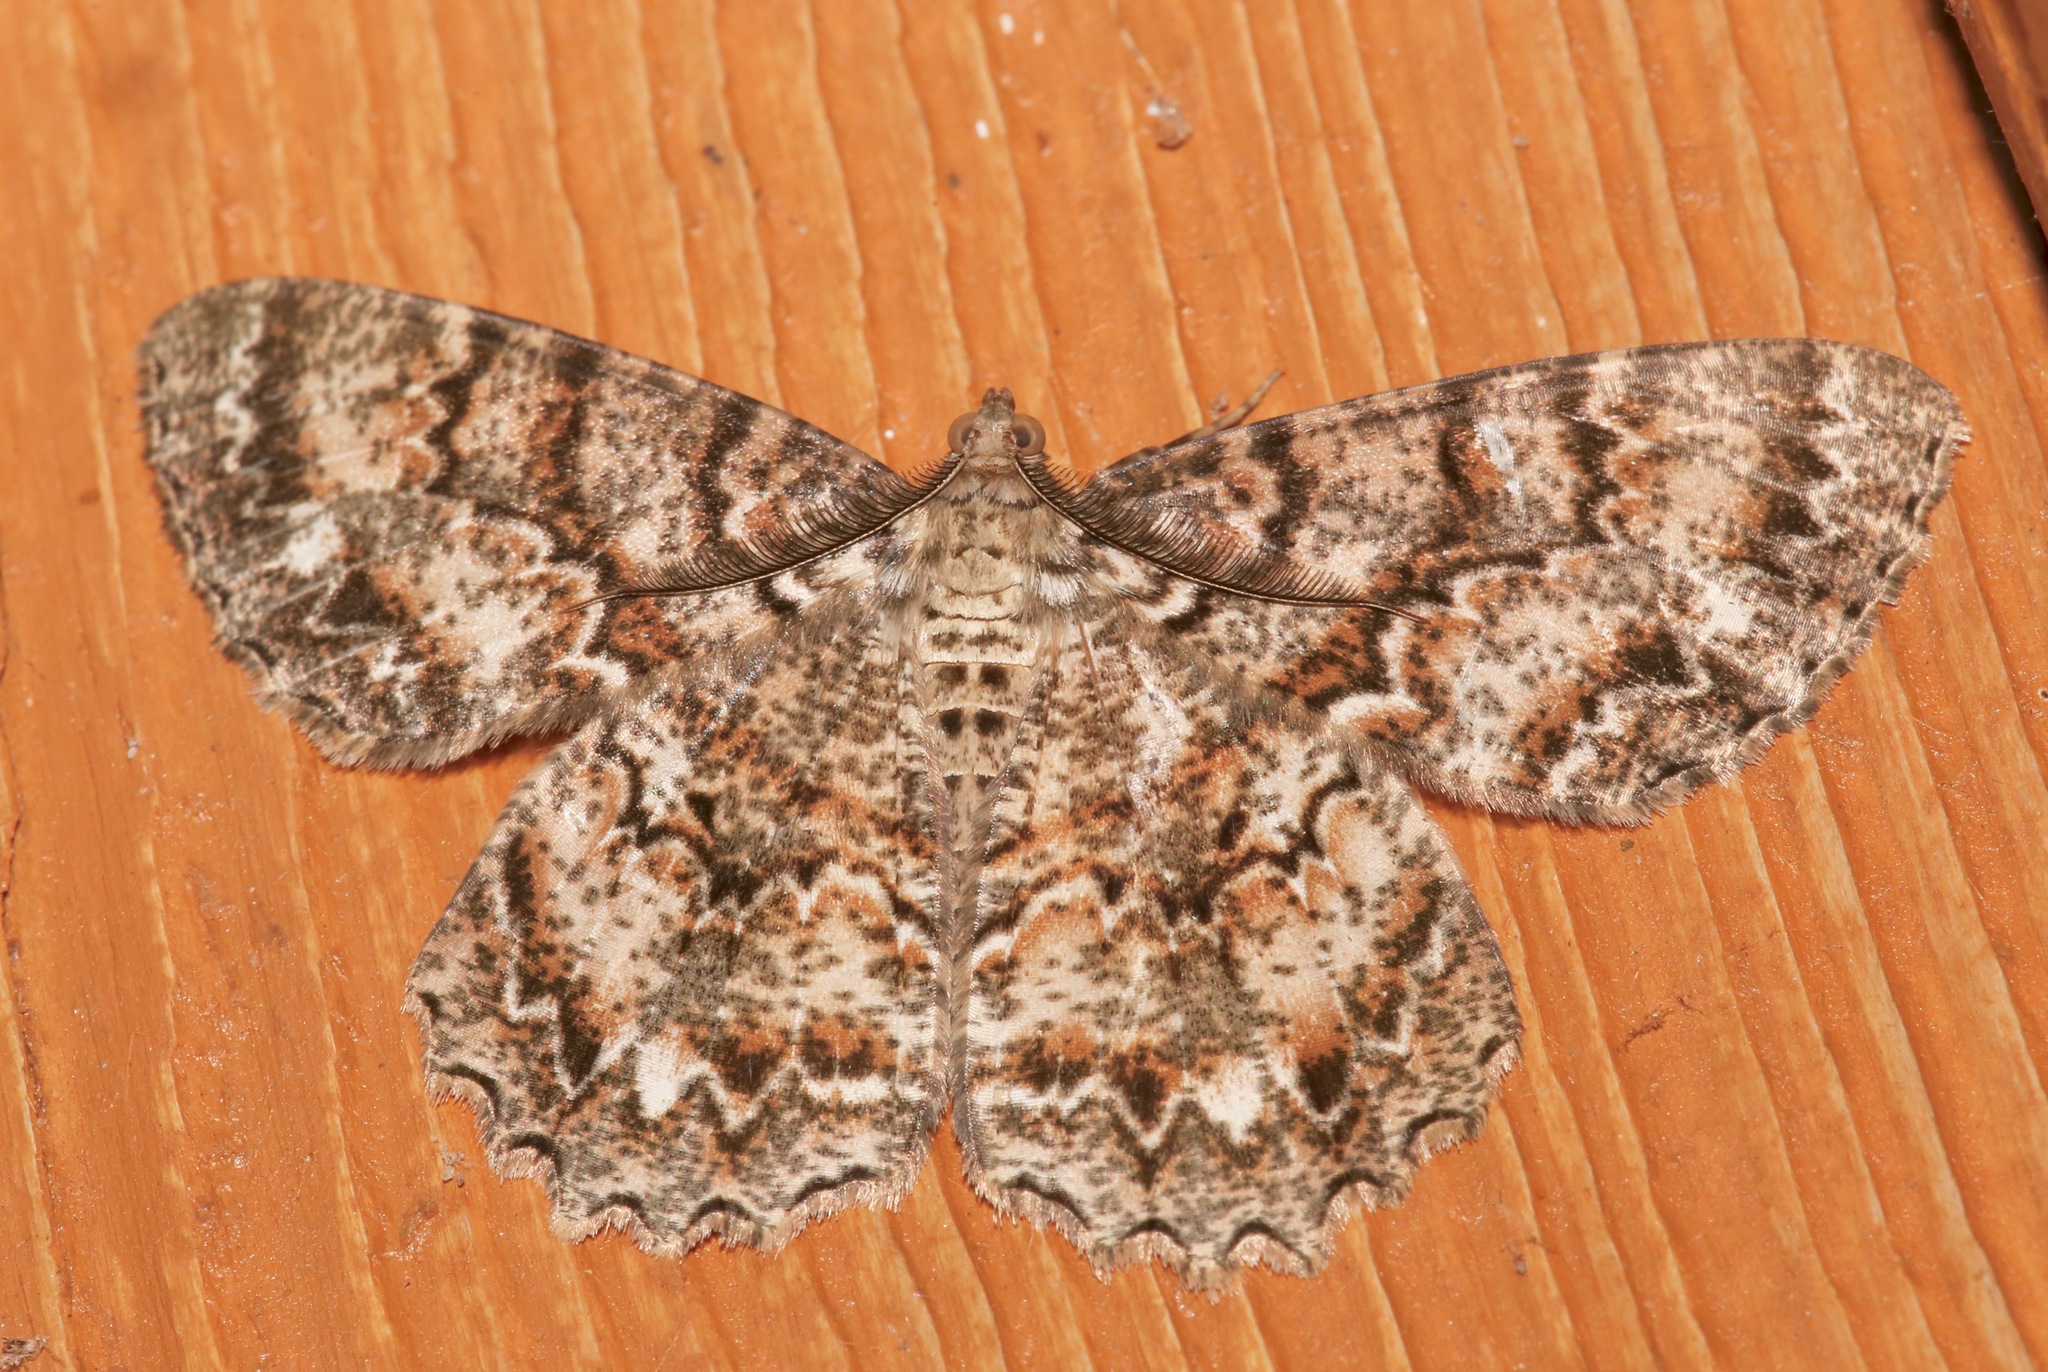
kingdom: Animalia
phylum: Arthropoda
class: Insecta
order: Lepidoptera
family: Geometridae
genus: Epimecis
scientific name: Epimecis hortaria
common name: Tulip-tree beauty
